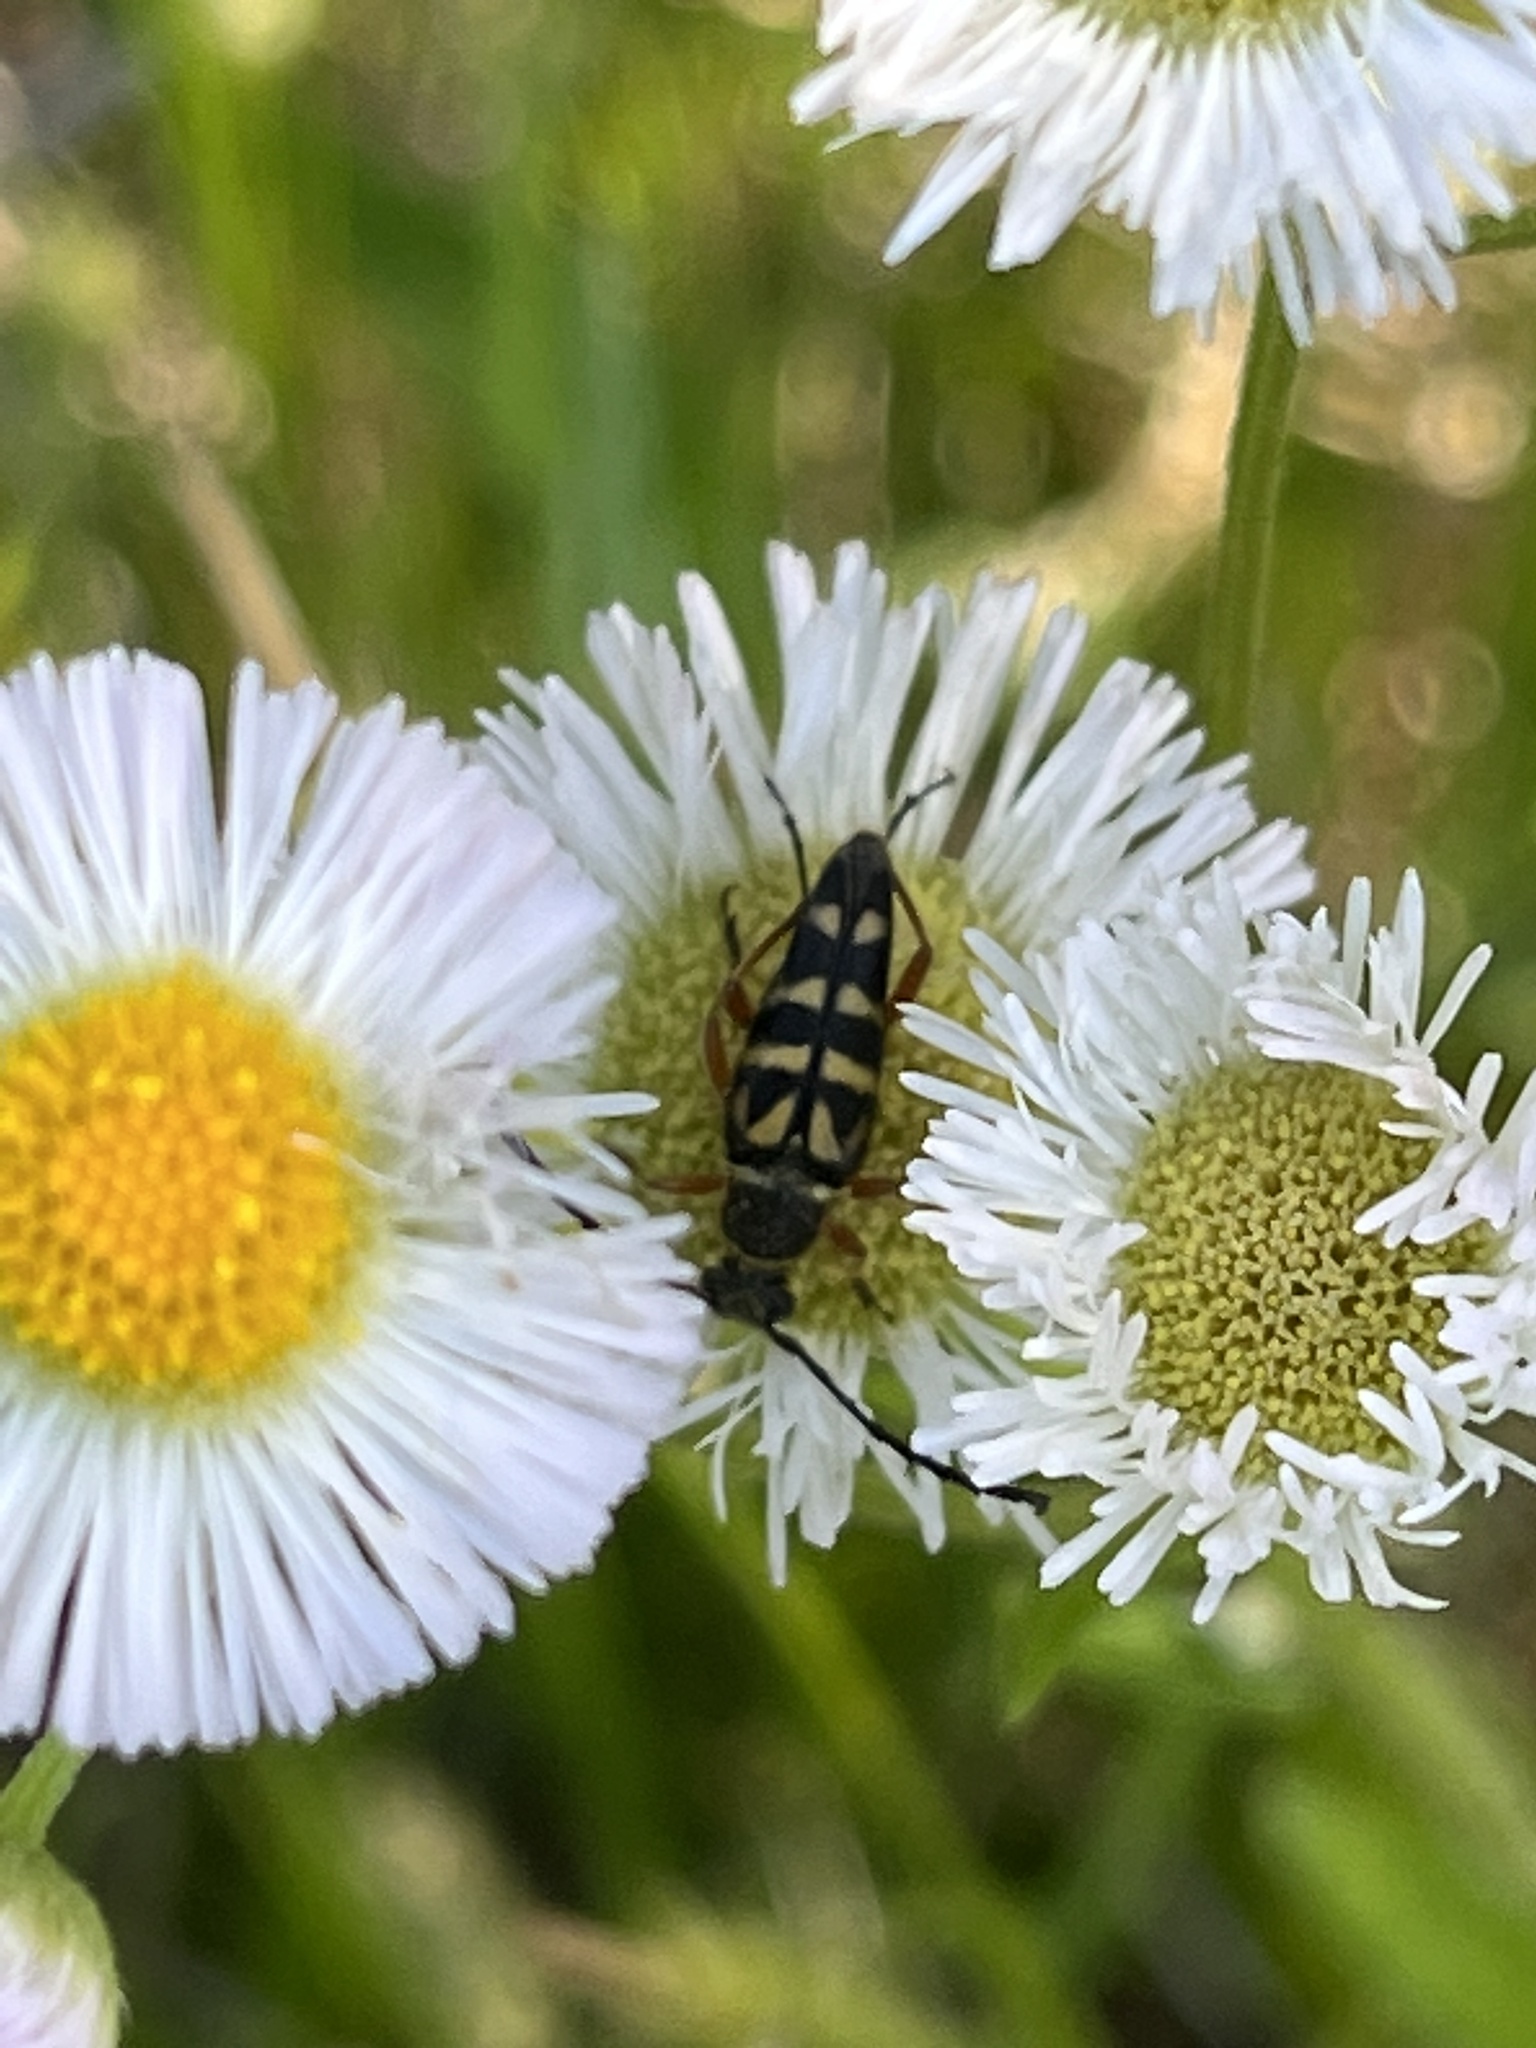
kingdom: Animalia
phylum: Arthropoda
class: Insecta
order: Coleoptera
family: Cerambycidae
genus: Typocerus
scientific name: Typocerus zebra
